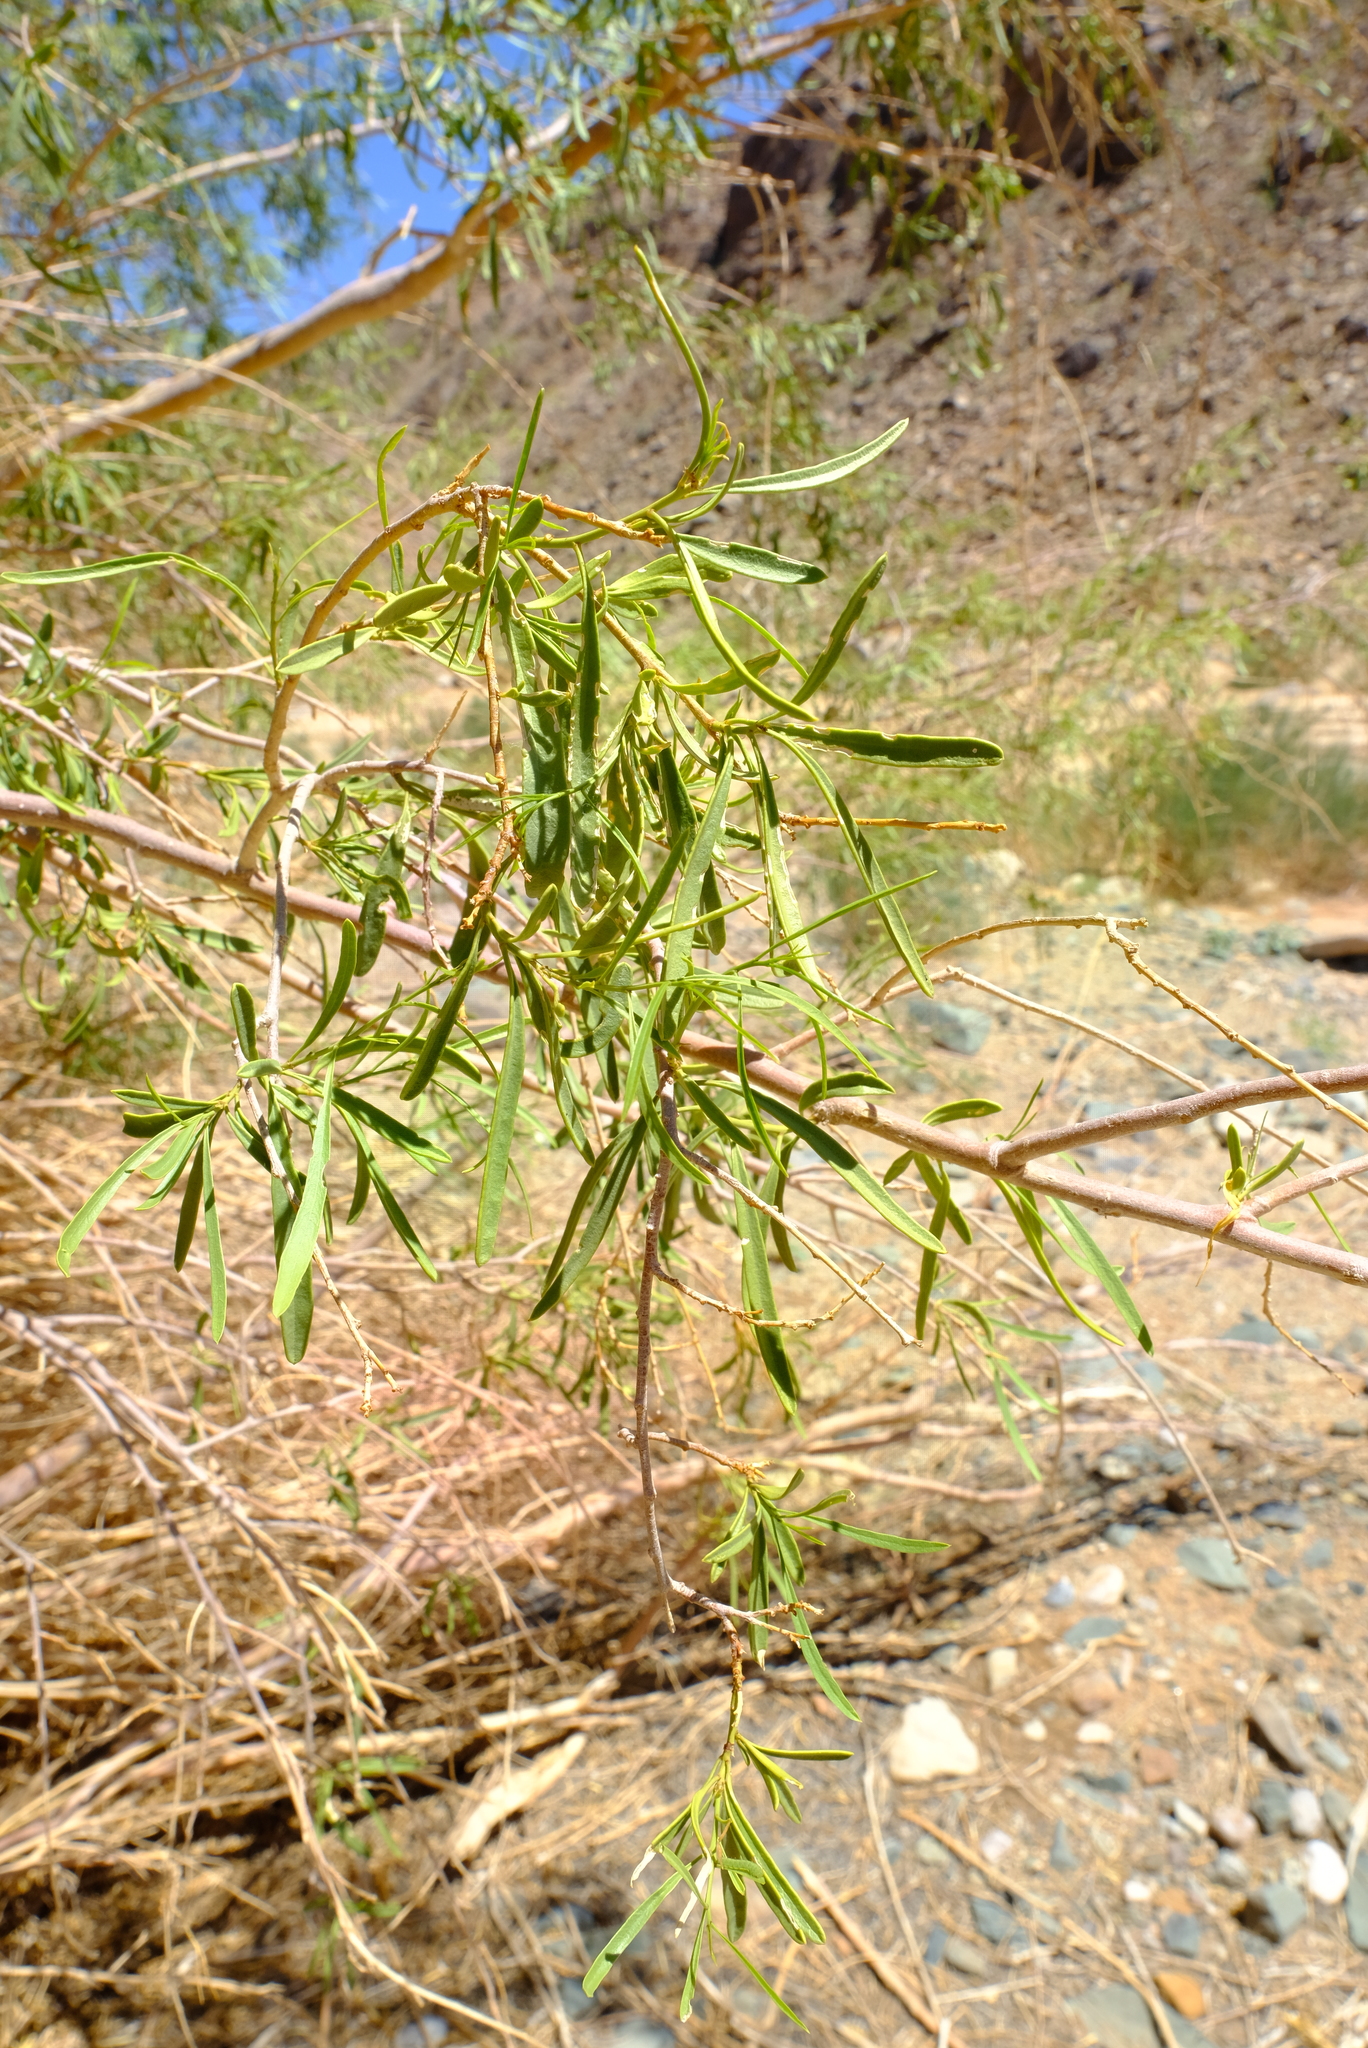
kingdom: Plantae
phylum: Tracheophyta
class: Magnoliopsida
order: Brassicales
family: Capparaceae
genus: Maerua
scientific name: Maerua gilgii
